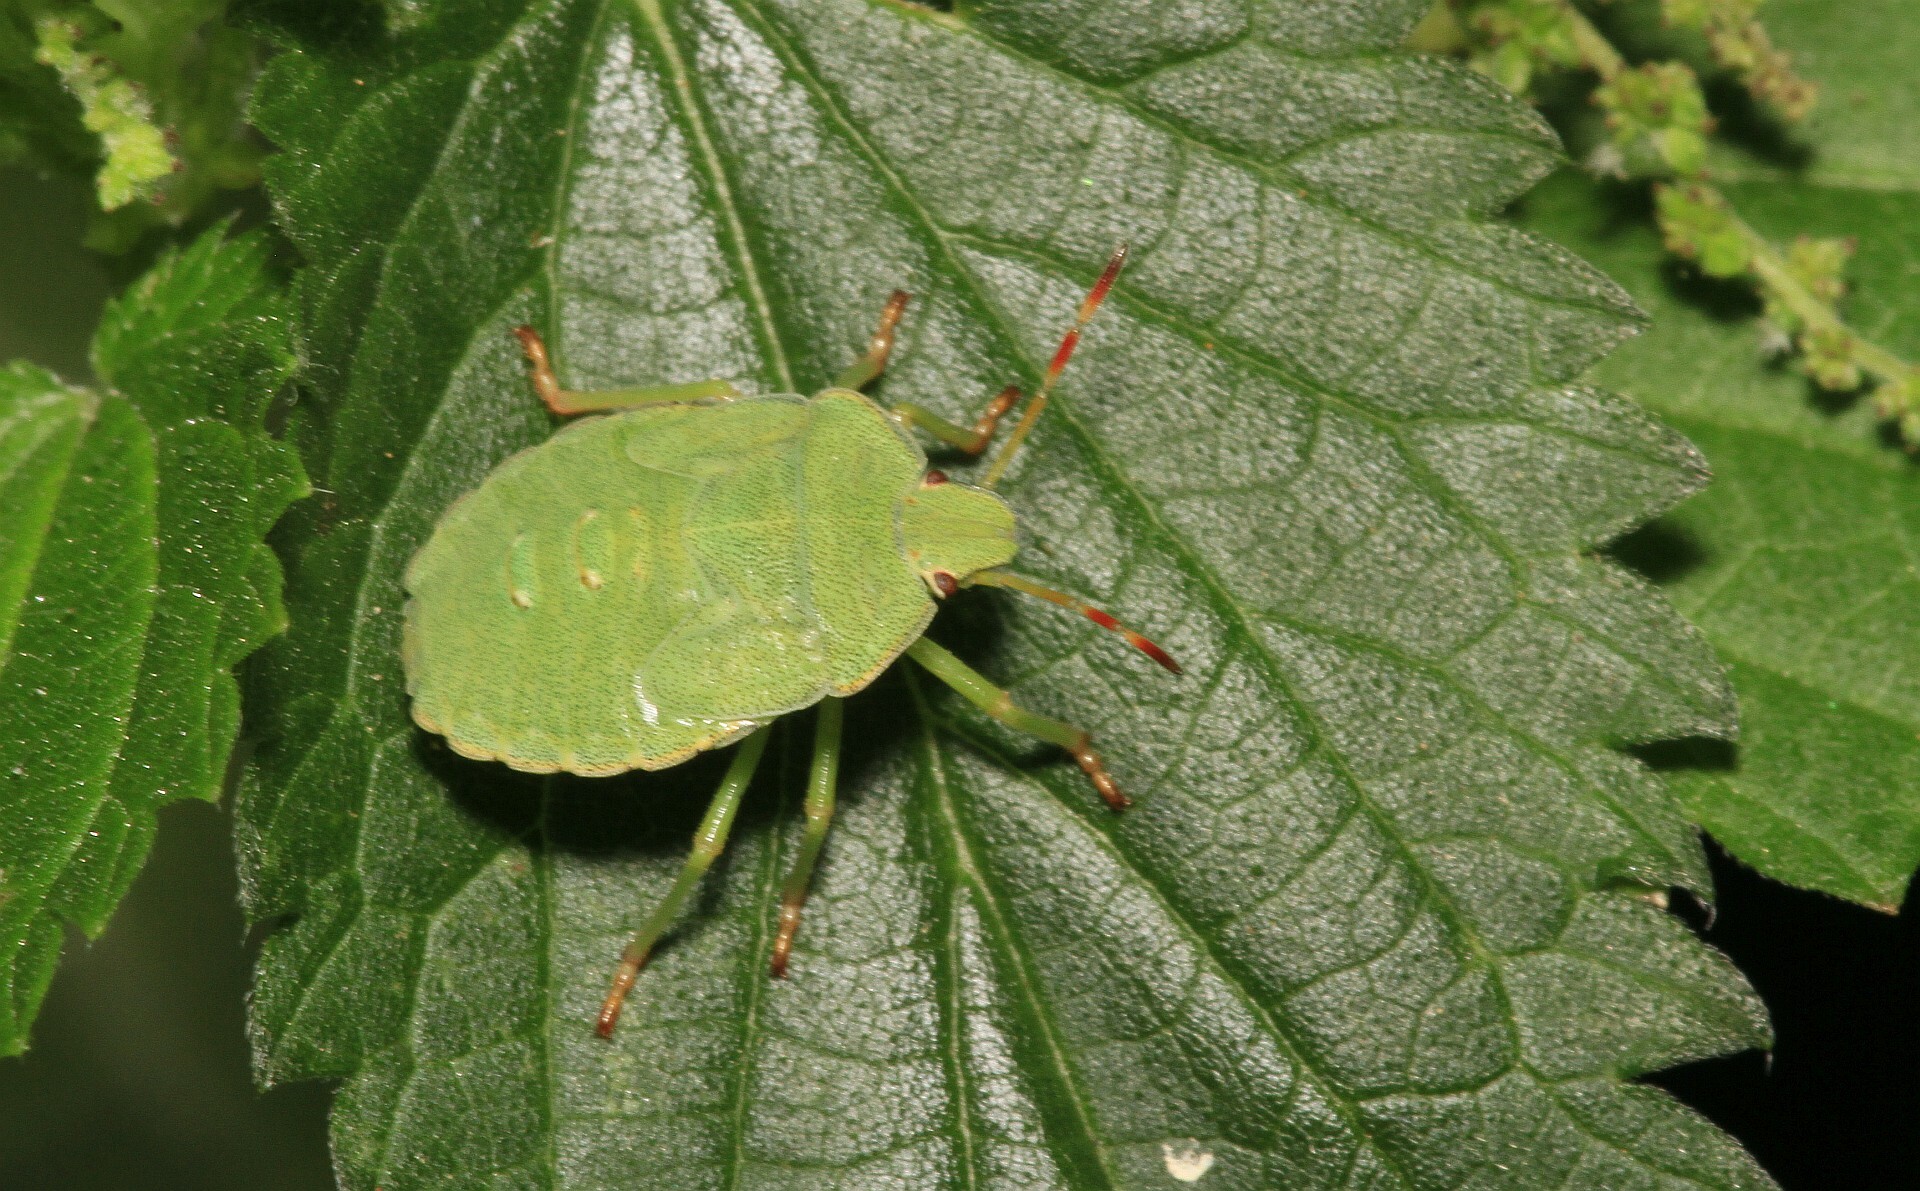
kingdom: Animalia
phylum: Arthropoda
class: Insecta
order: Hemiptera
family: Pentatomidae
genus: Palomena
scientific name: Palomena prasina
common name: Green shieldbug
